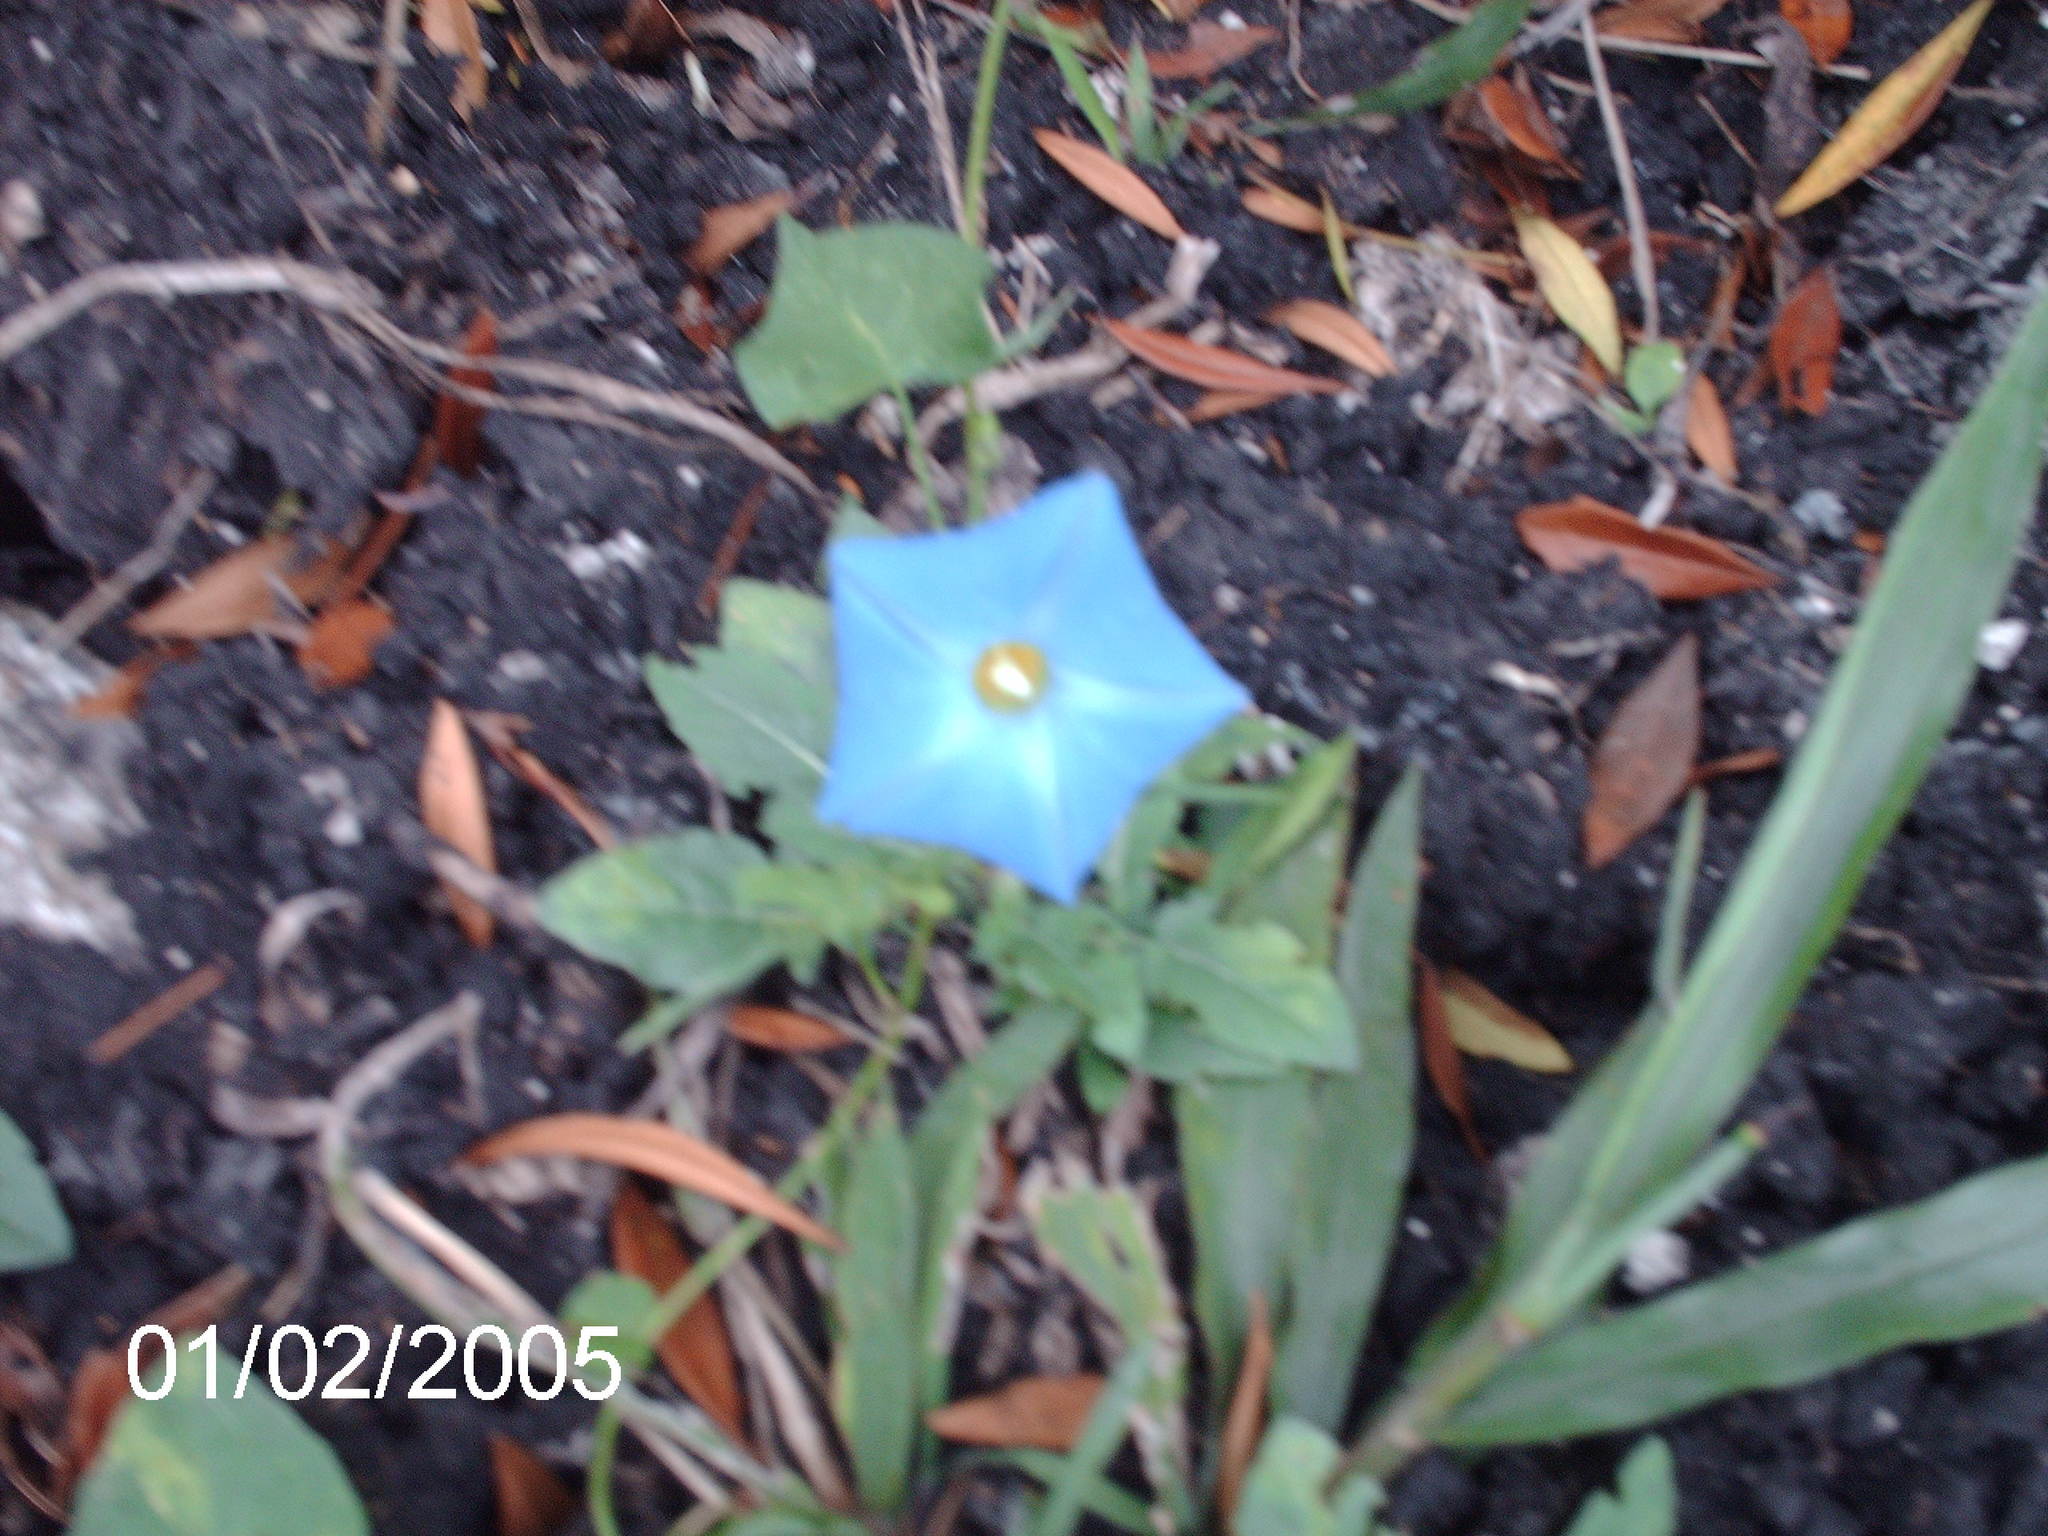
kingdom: Plantae
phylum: Tracheophyta
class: Magnoliopsida
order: Solanales
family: Convolvulaceae
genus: Ipomoea
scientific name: Ipomoea cardiophylla
